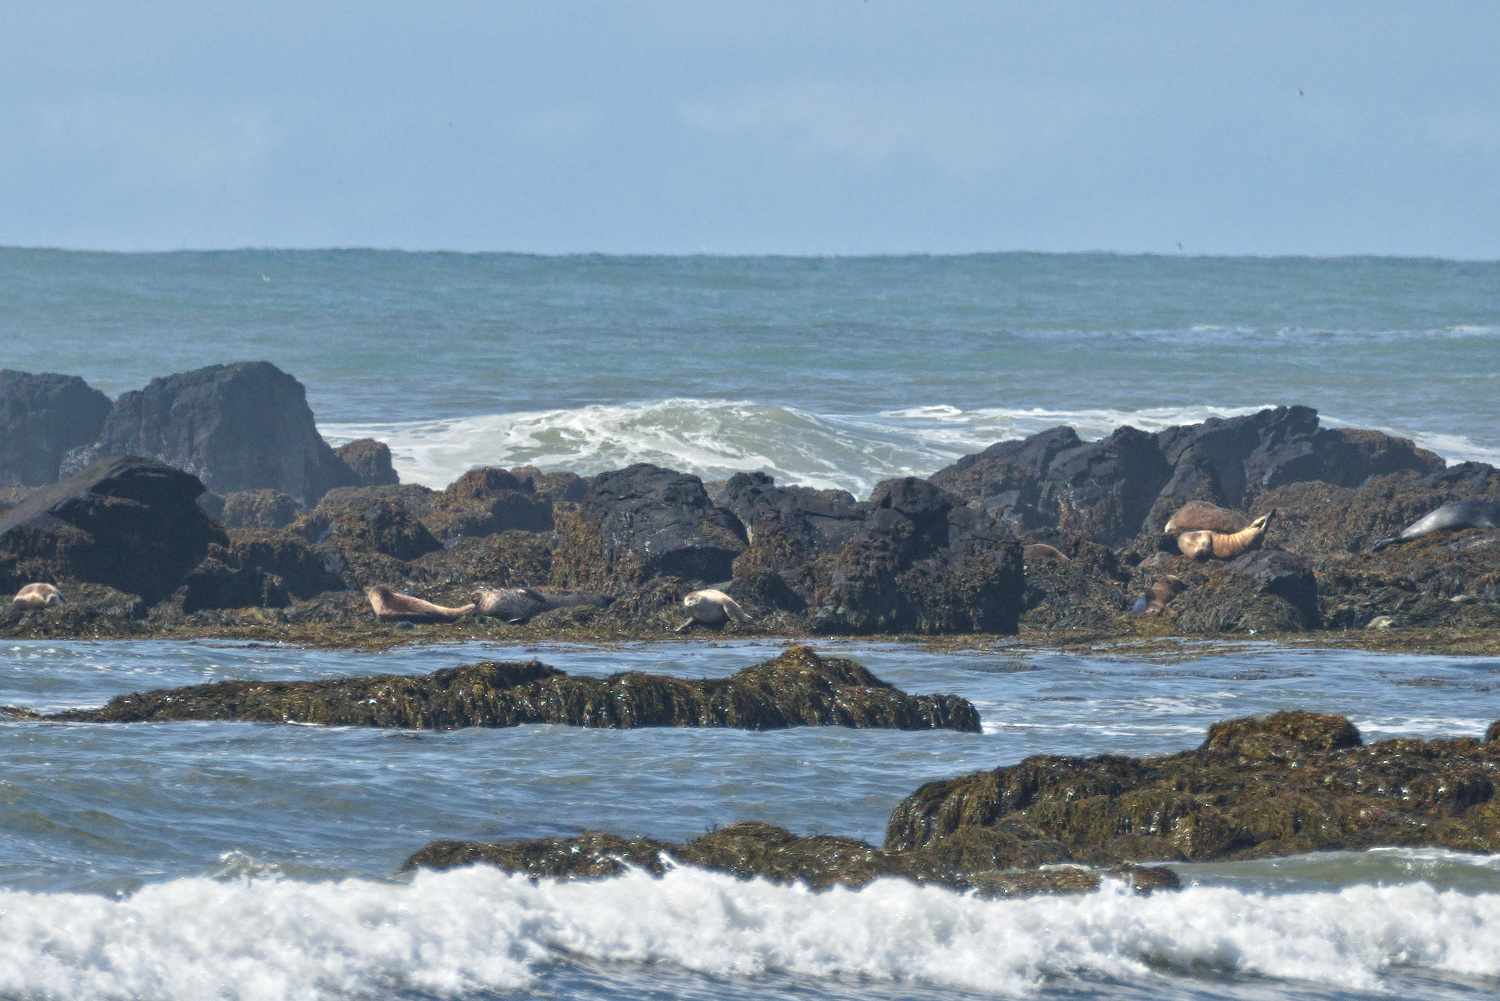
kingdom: Animalia
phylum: Chordata
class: Mammalia
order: Carnivora
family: Phocidae
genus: Phoca
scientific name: Phoca vitulina
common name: Harbor seal
